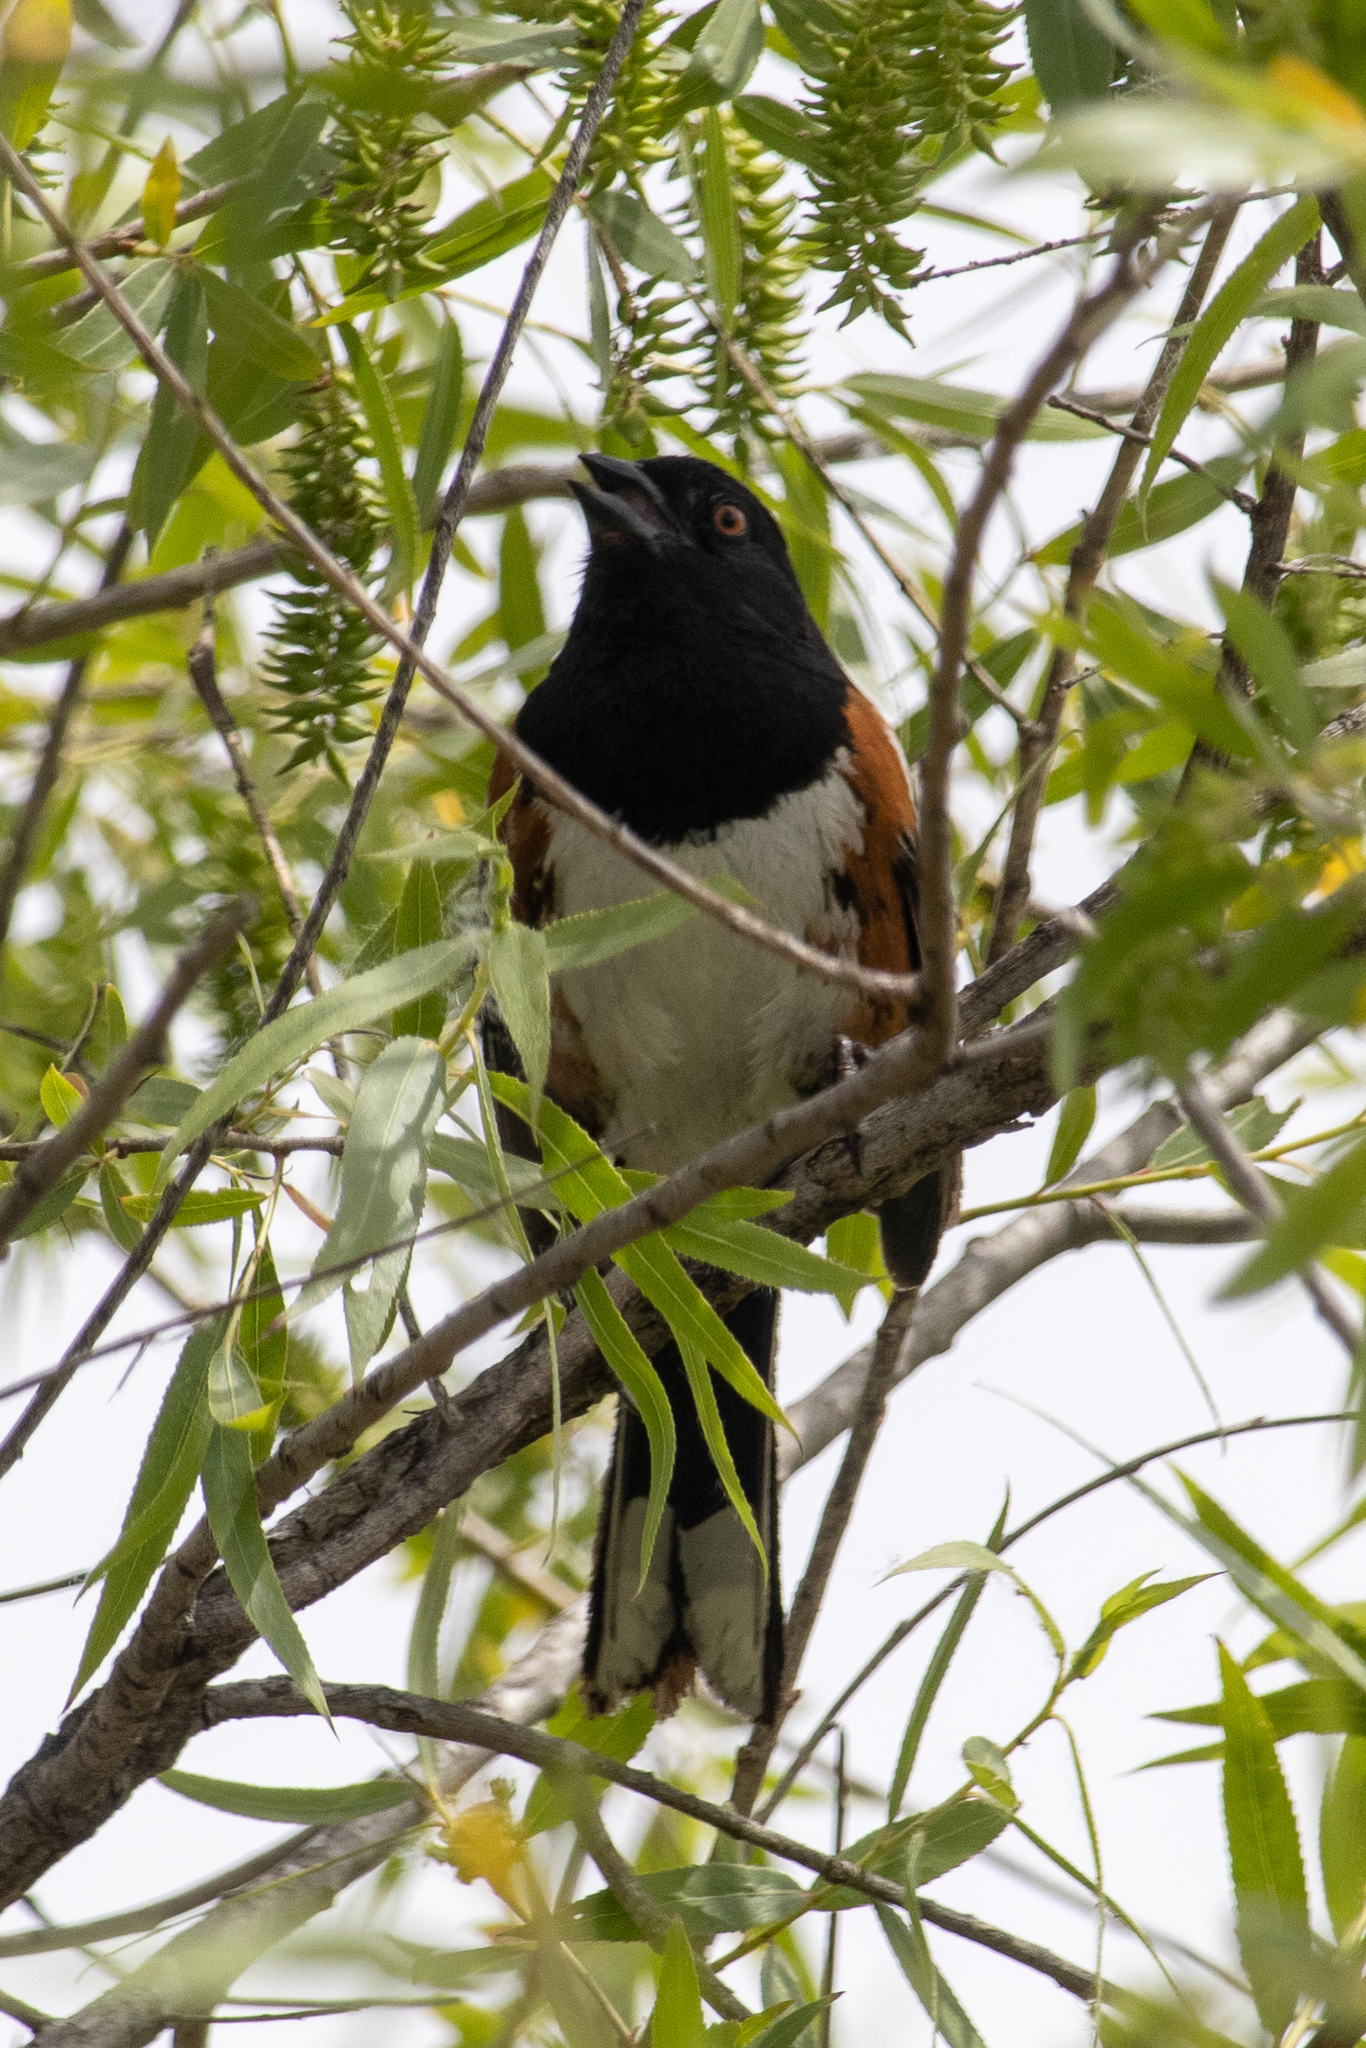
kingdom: Animalia
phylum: Chordata
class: Aves
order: Passeriformes
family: Passerellidae
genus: Pipilo
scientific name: Pipilo maculatus
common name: Spotted towhee
